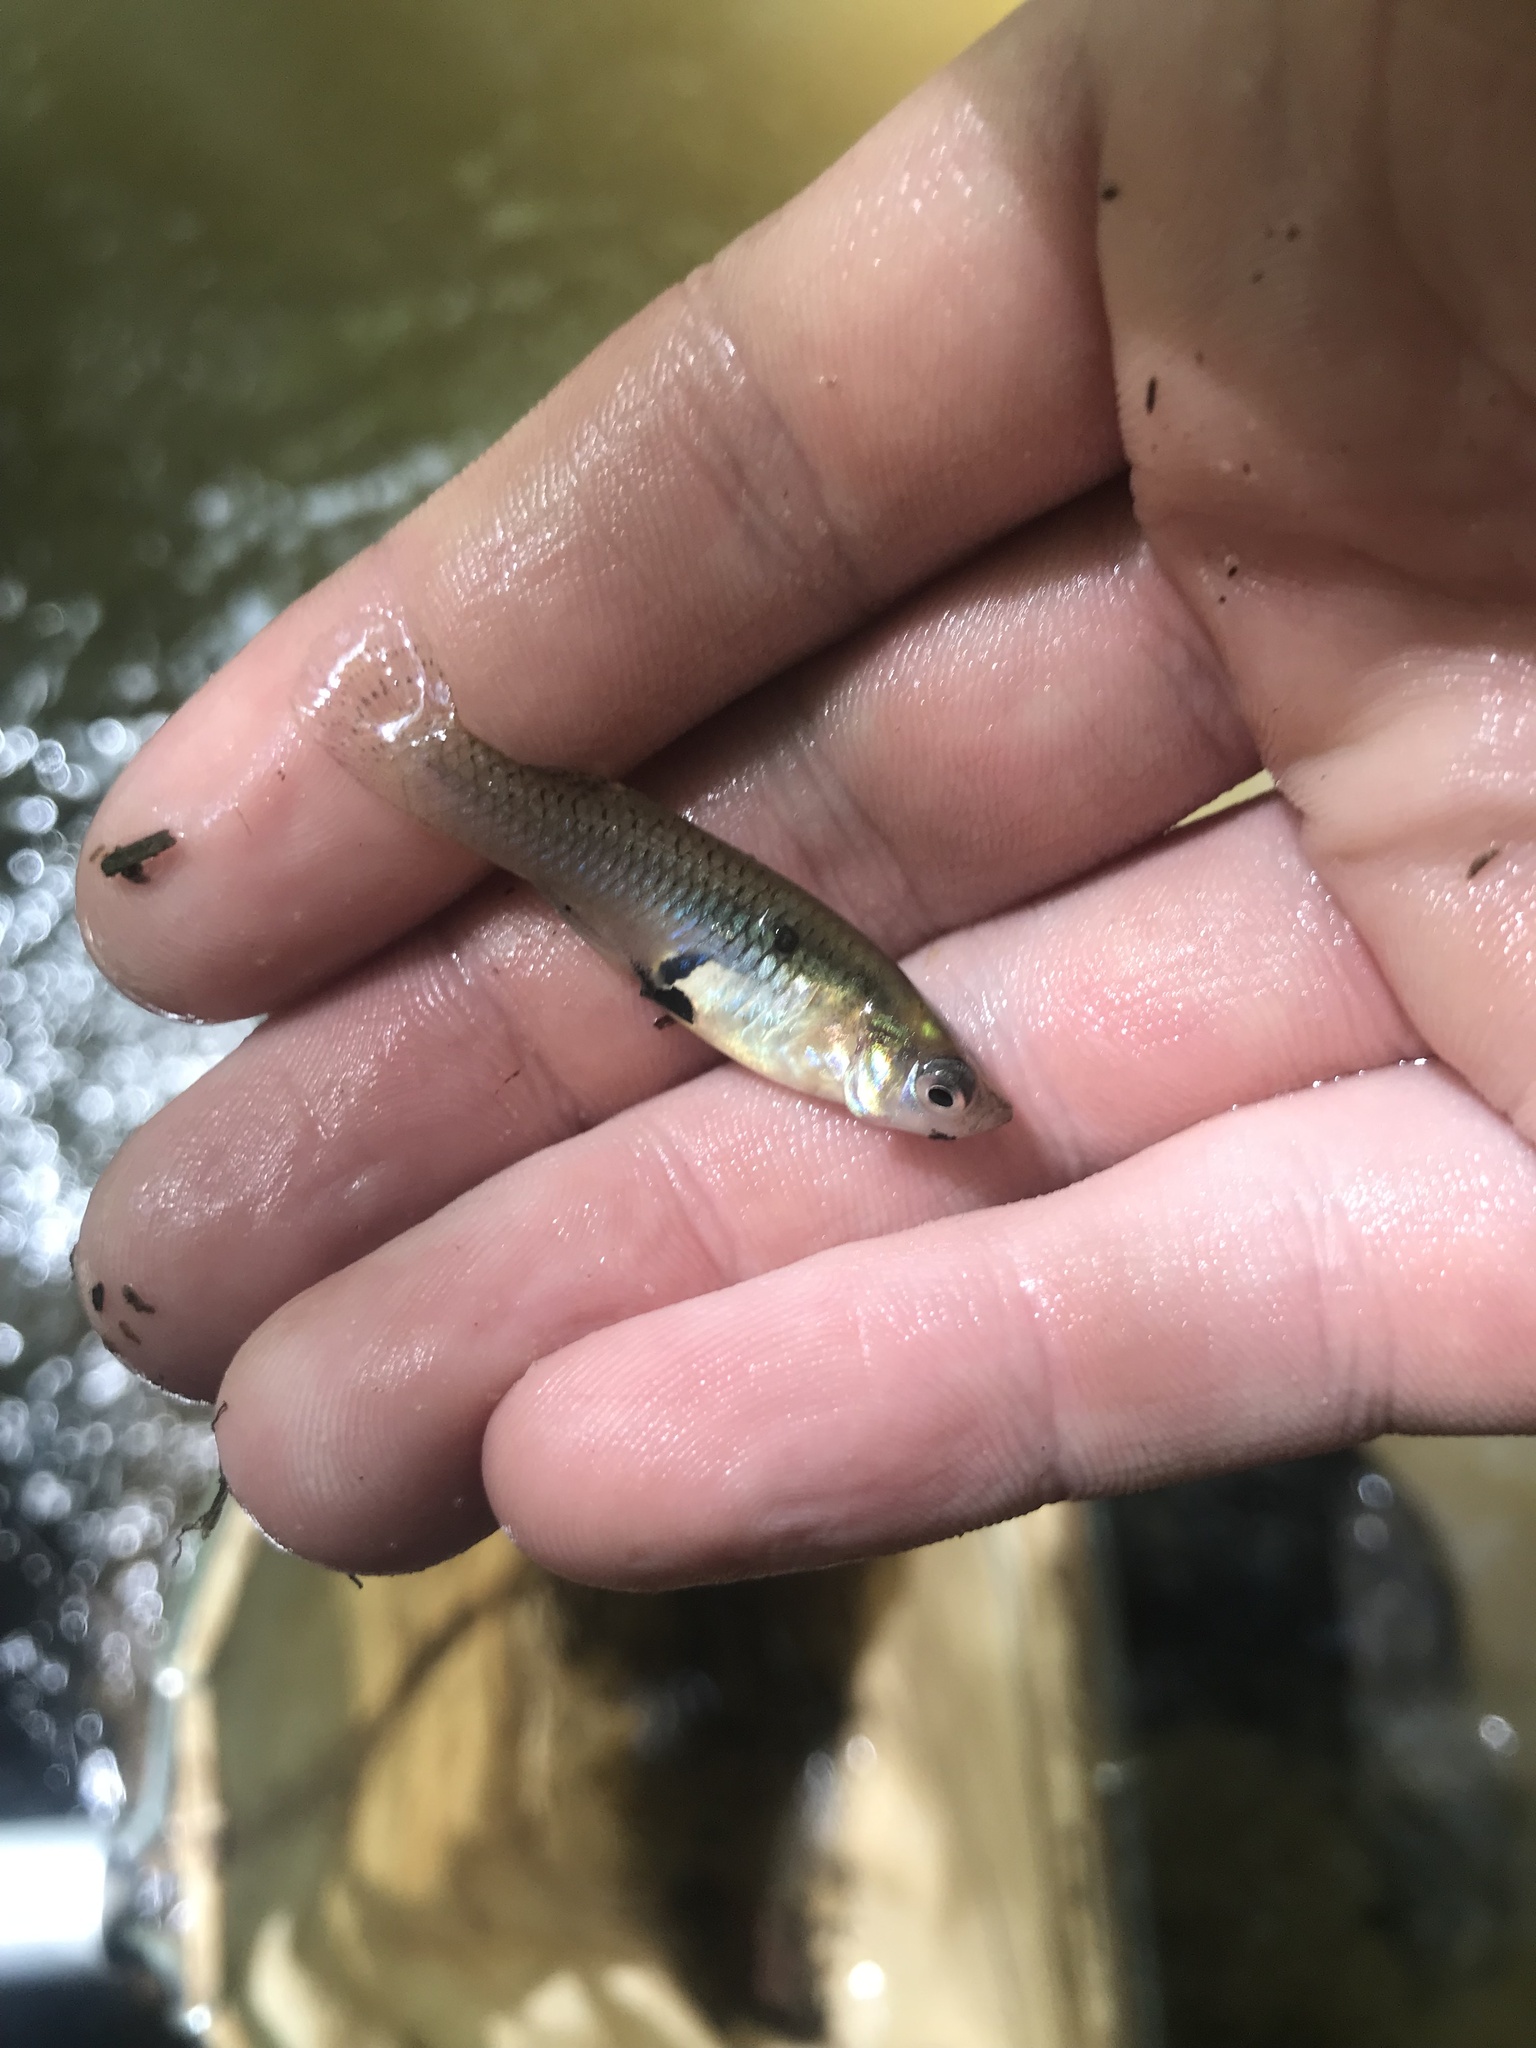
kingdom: Animalia
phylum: Chordata
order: Cyprinodontiformes
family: Poeciliidae
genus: Gambusia
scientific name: Gambusia holbrooki
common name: Eastern mosquitofish
